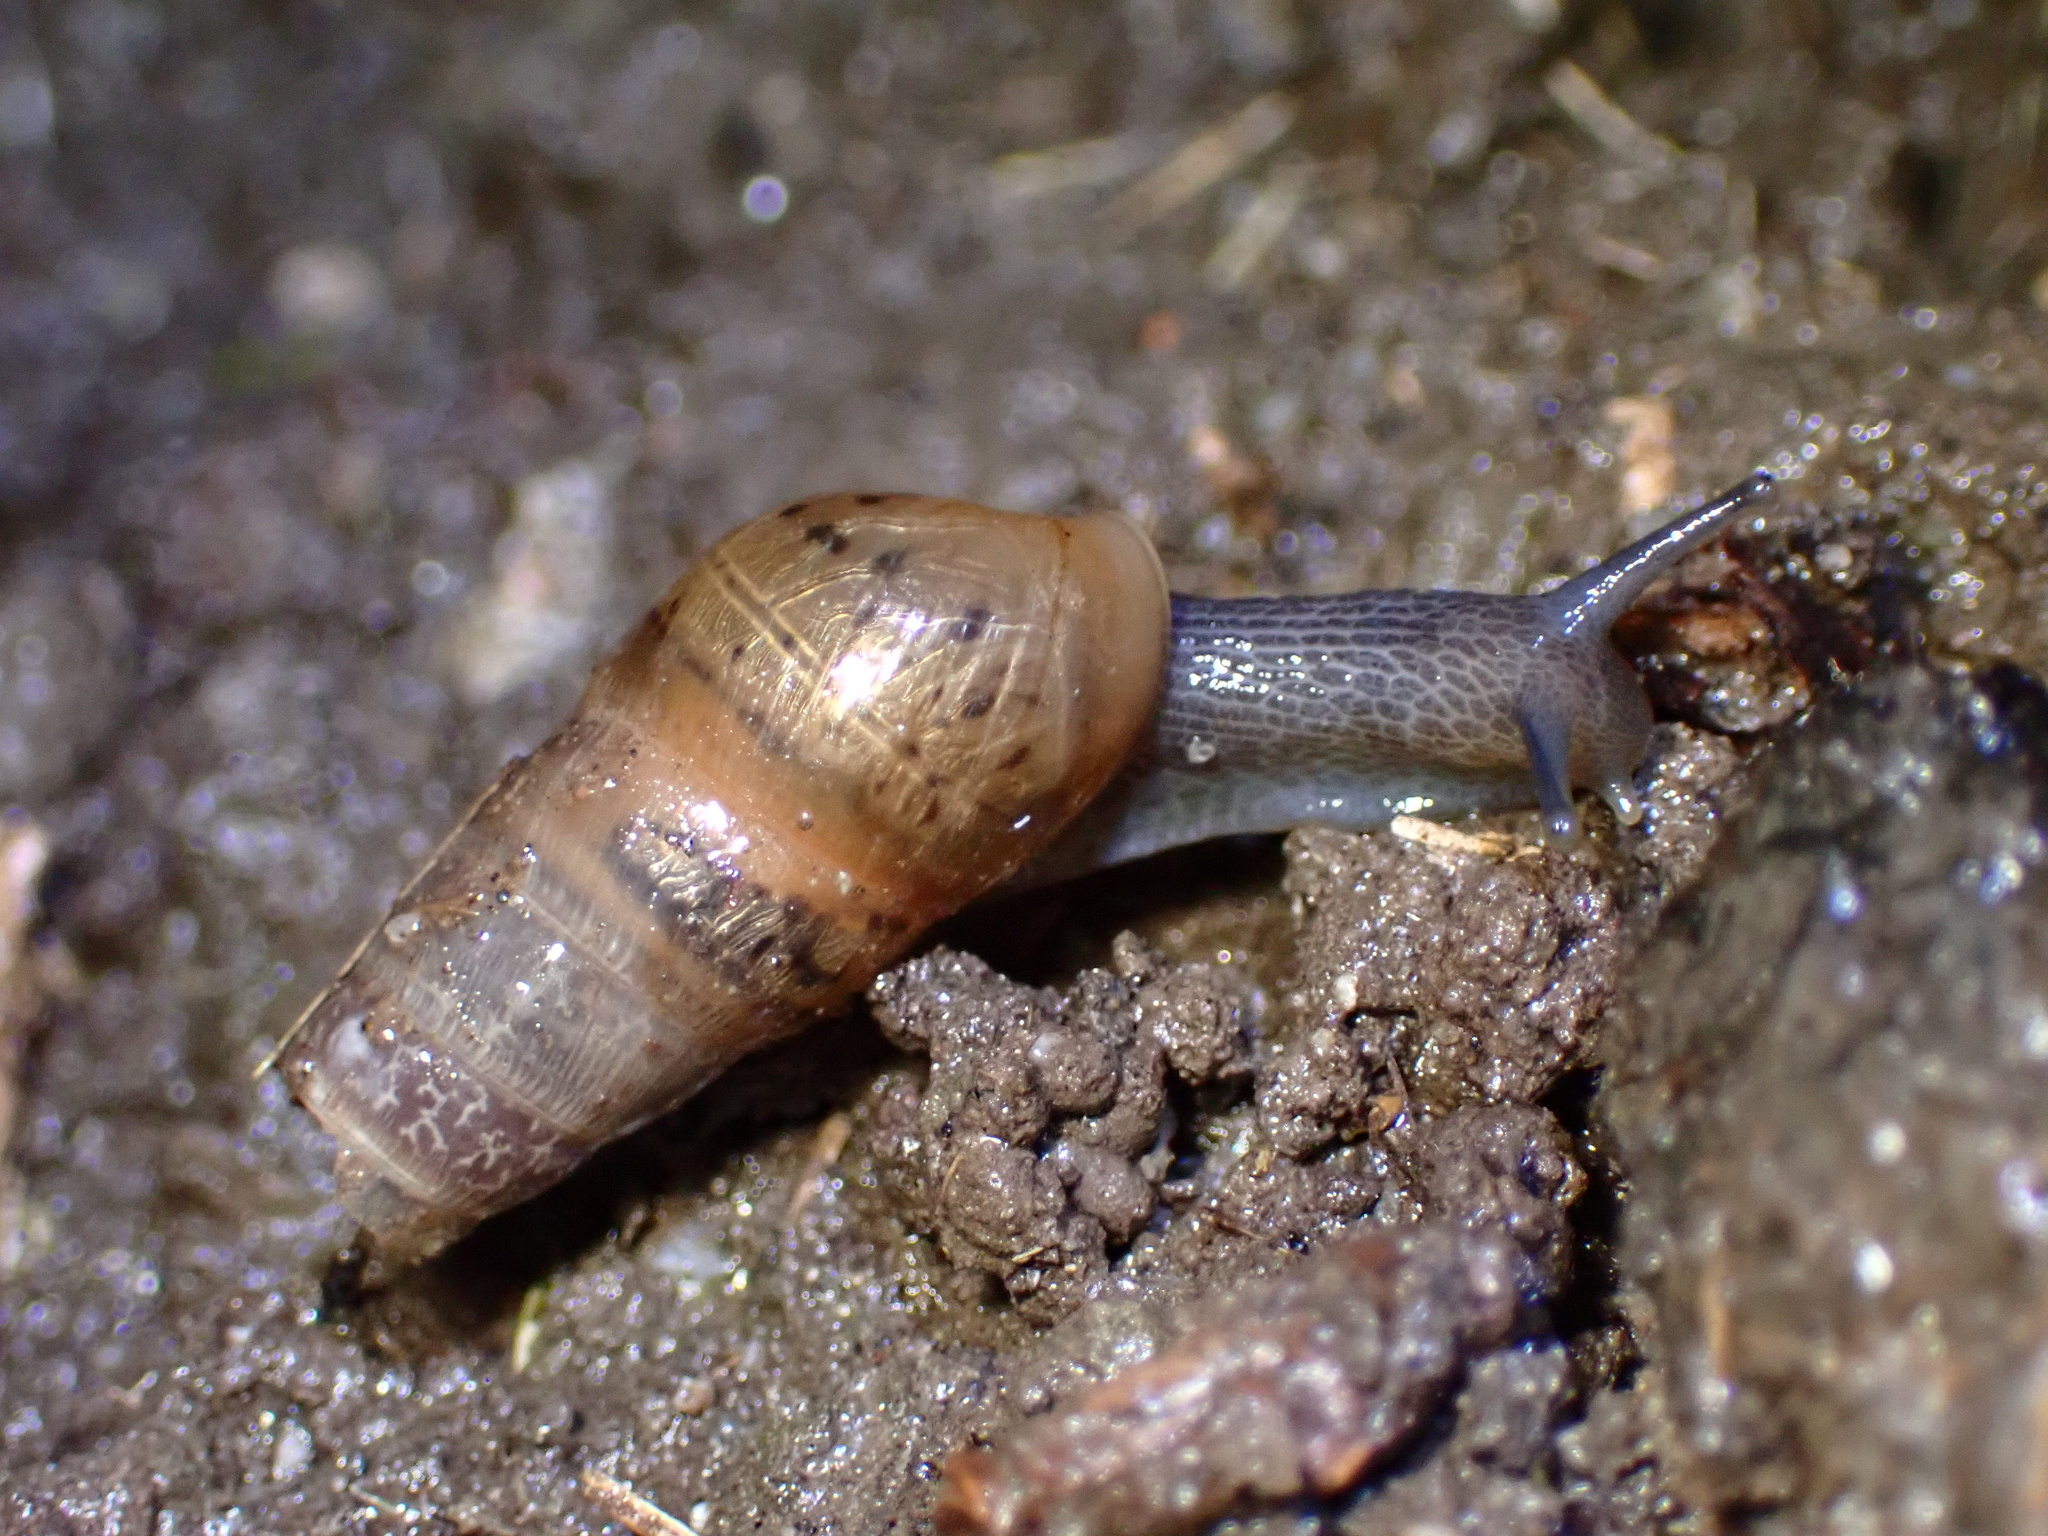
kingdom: Animalia
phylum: Mollusca
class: Gastropoda
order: Stylommatophora
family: Achatinidae
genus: Rumina
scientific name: Rumina decollata
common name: Decollate snail
